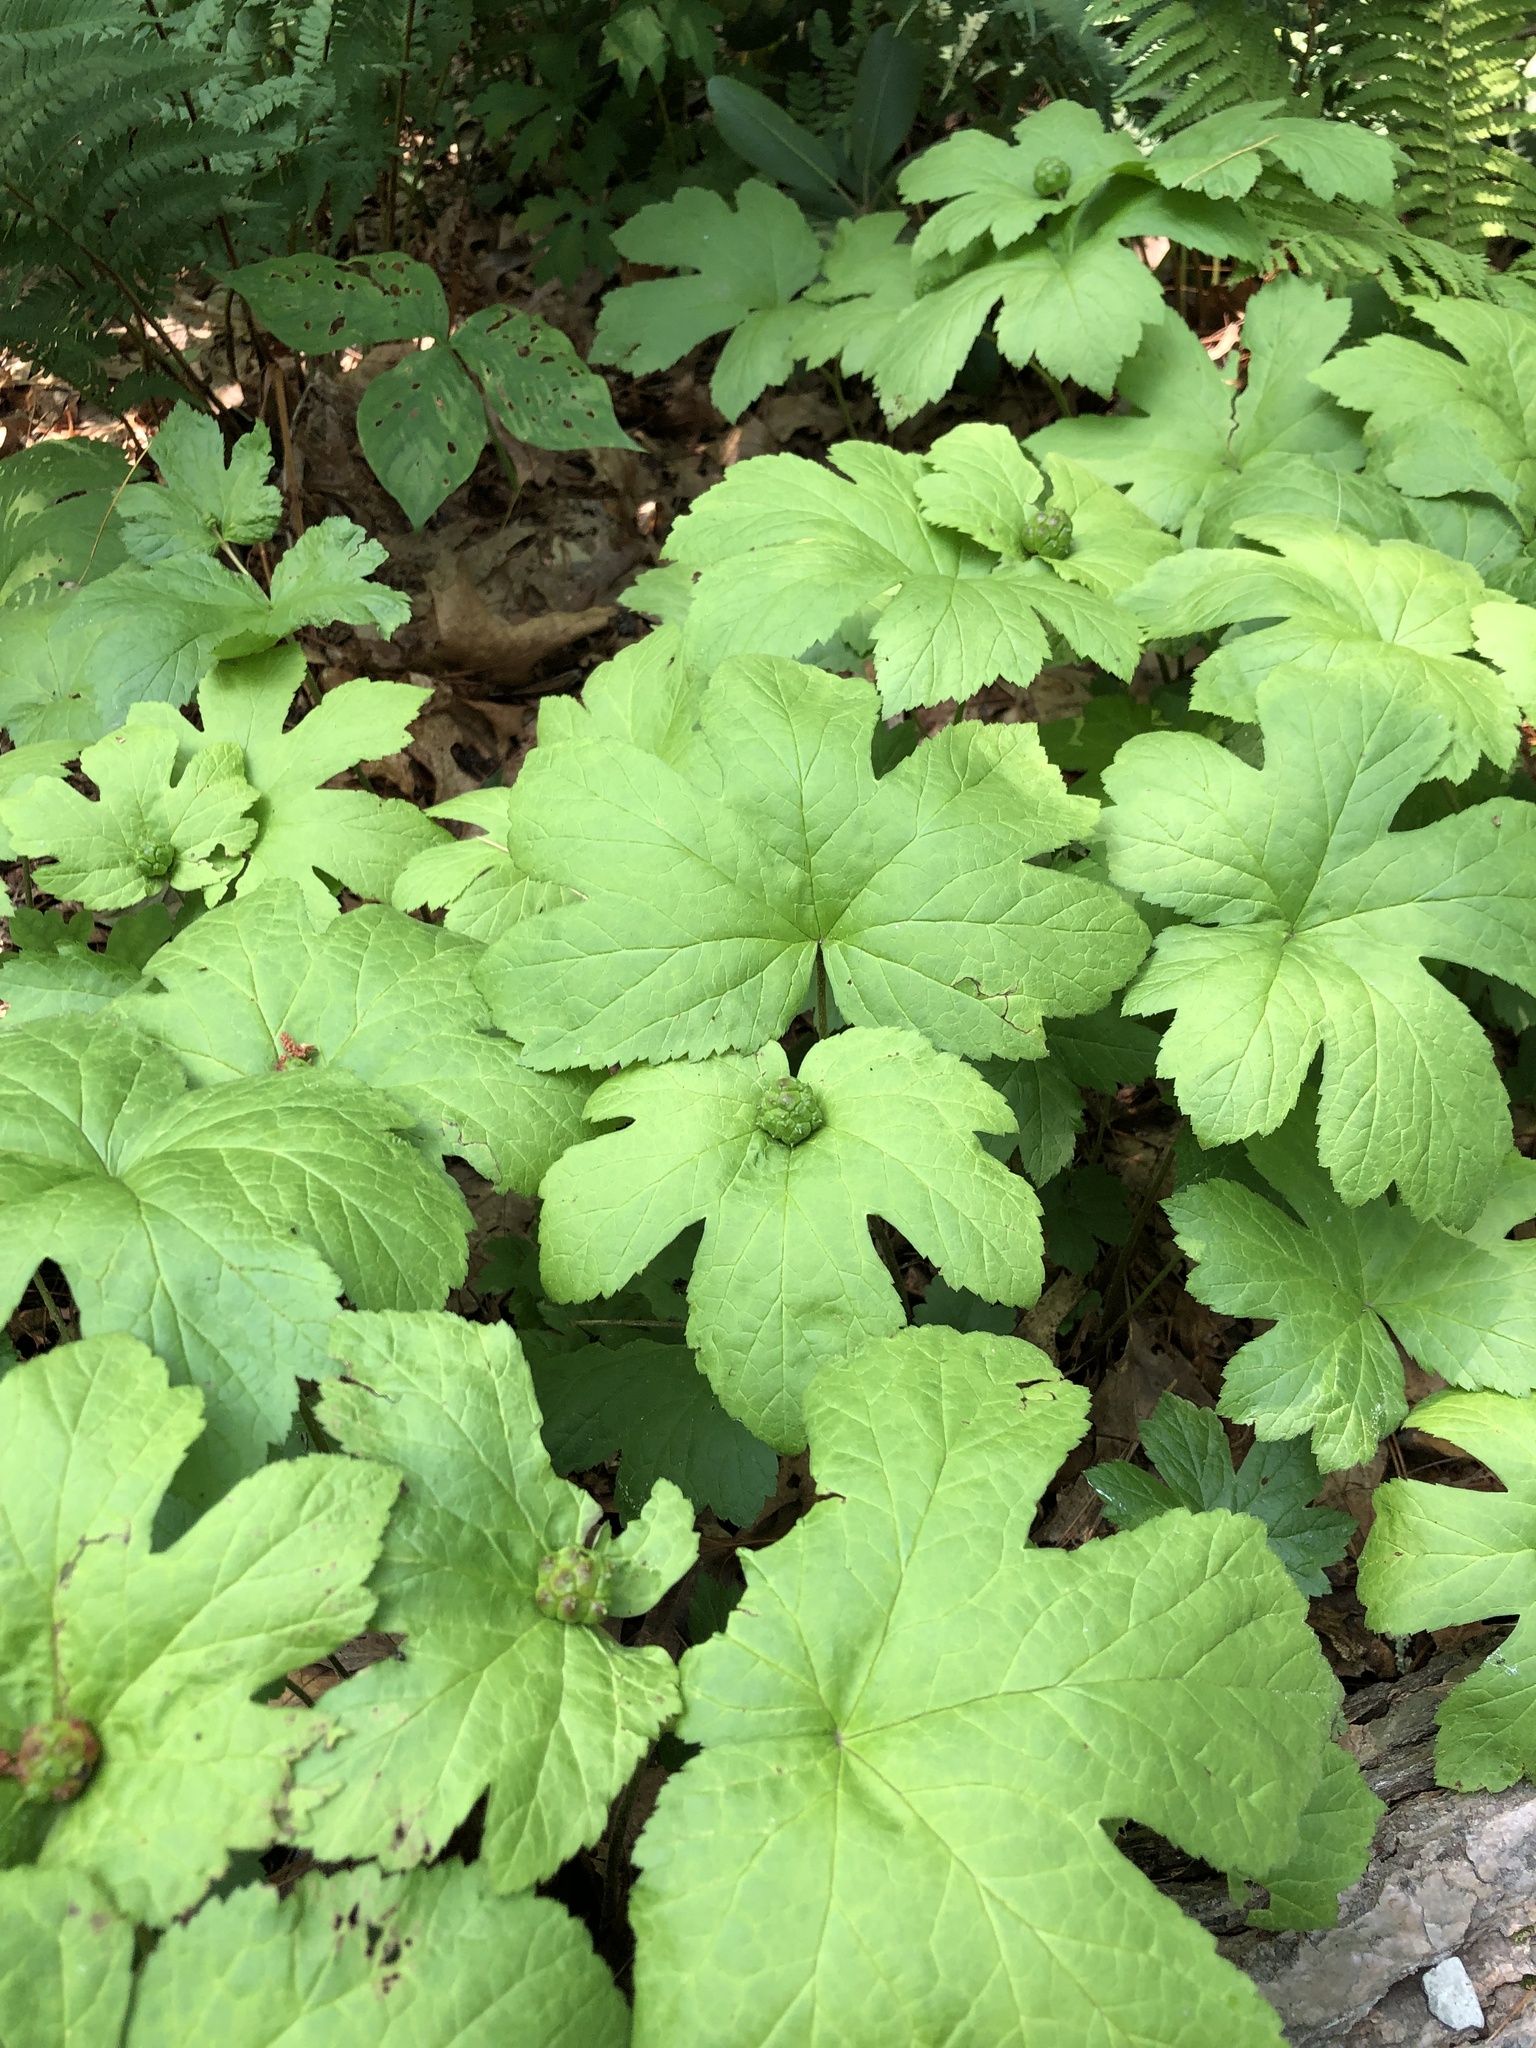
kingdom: Plantae
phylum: Tracheophyta
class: Magnoliopsida
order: Ranunculales
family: Ranunculaceae
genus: Hydrastis
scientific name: Hydrastis canadensis
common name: Goldenseal
